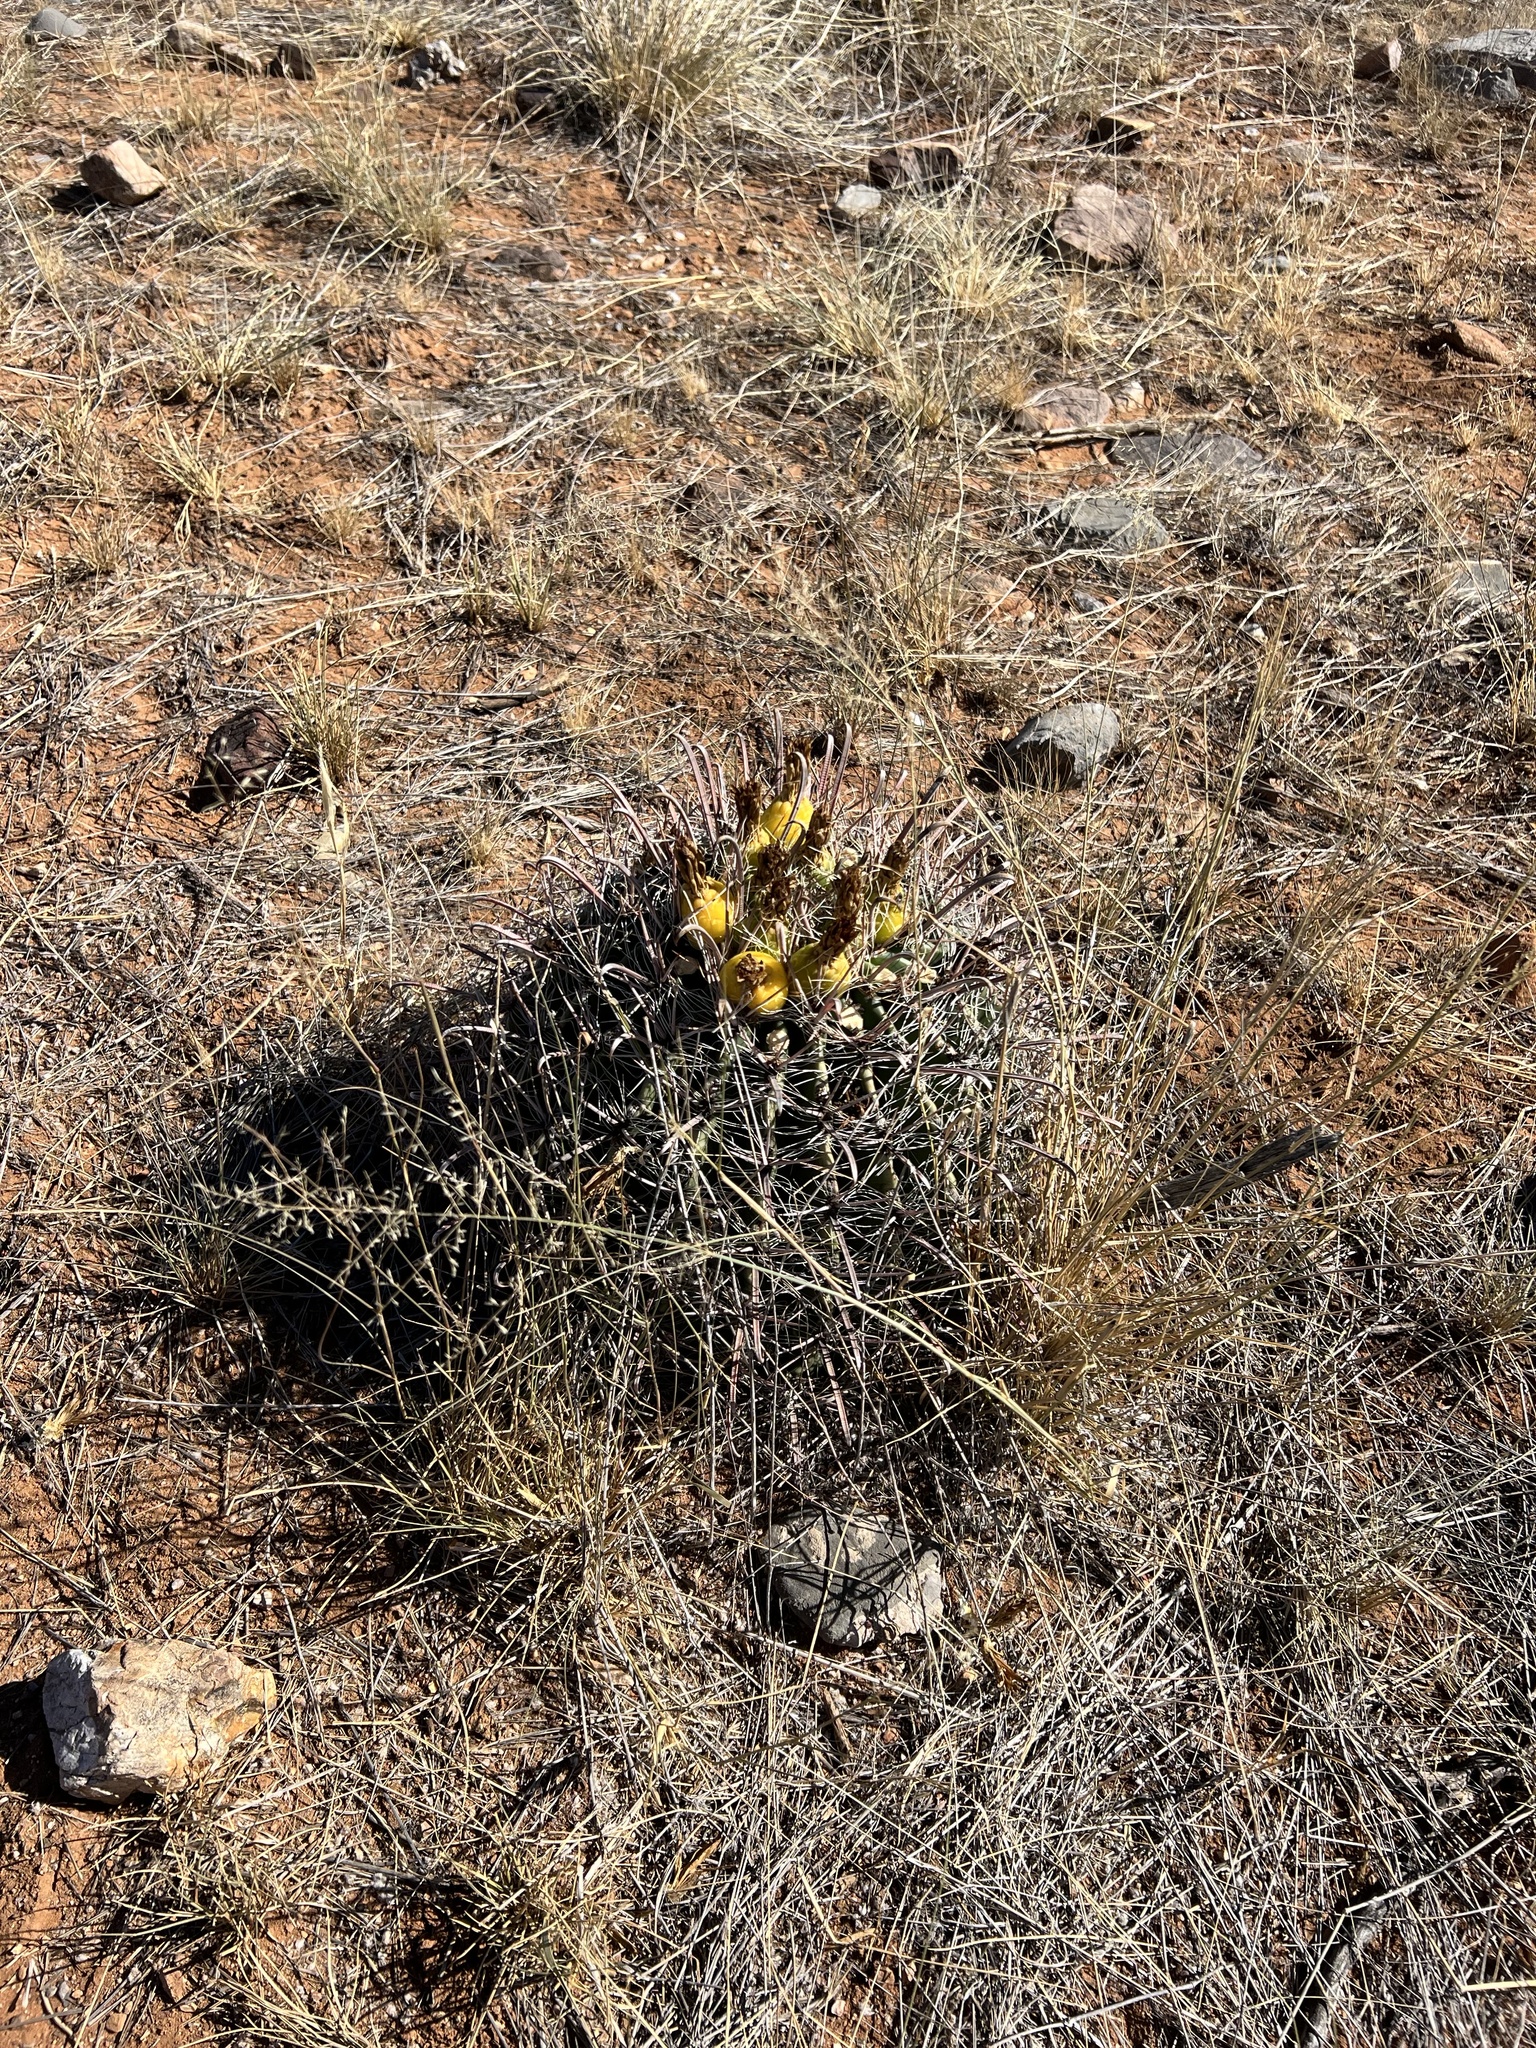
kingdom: Plantae
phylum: Tracheophyta
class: Magnoliopsida
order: Caryophyllales
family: Cactaceae
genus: Ferocactus
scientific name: Ferocactus wislizeni
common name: Candy barrel cactus
